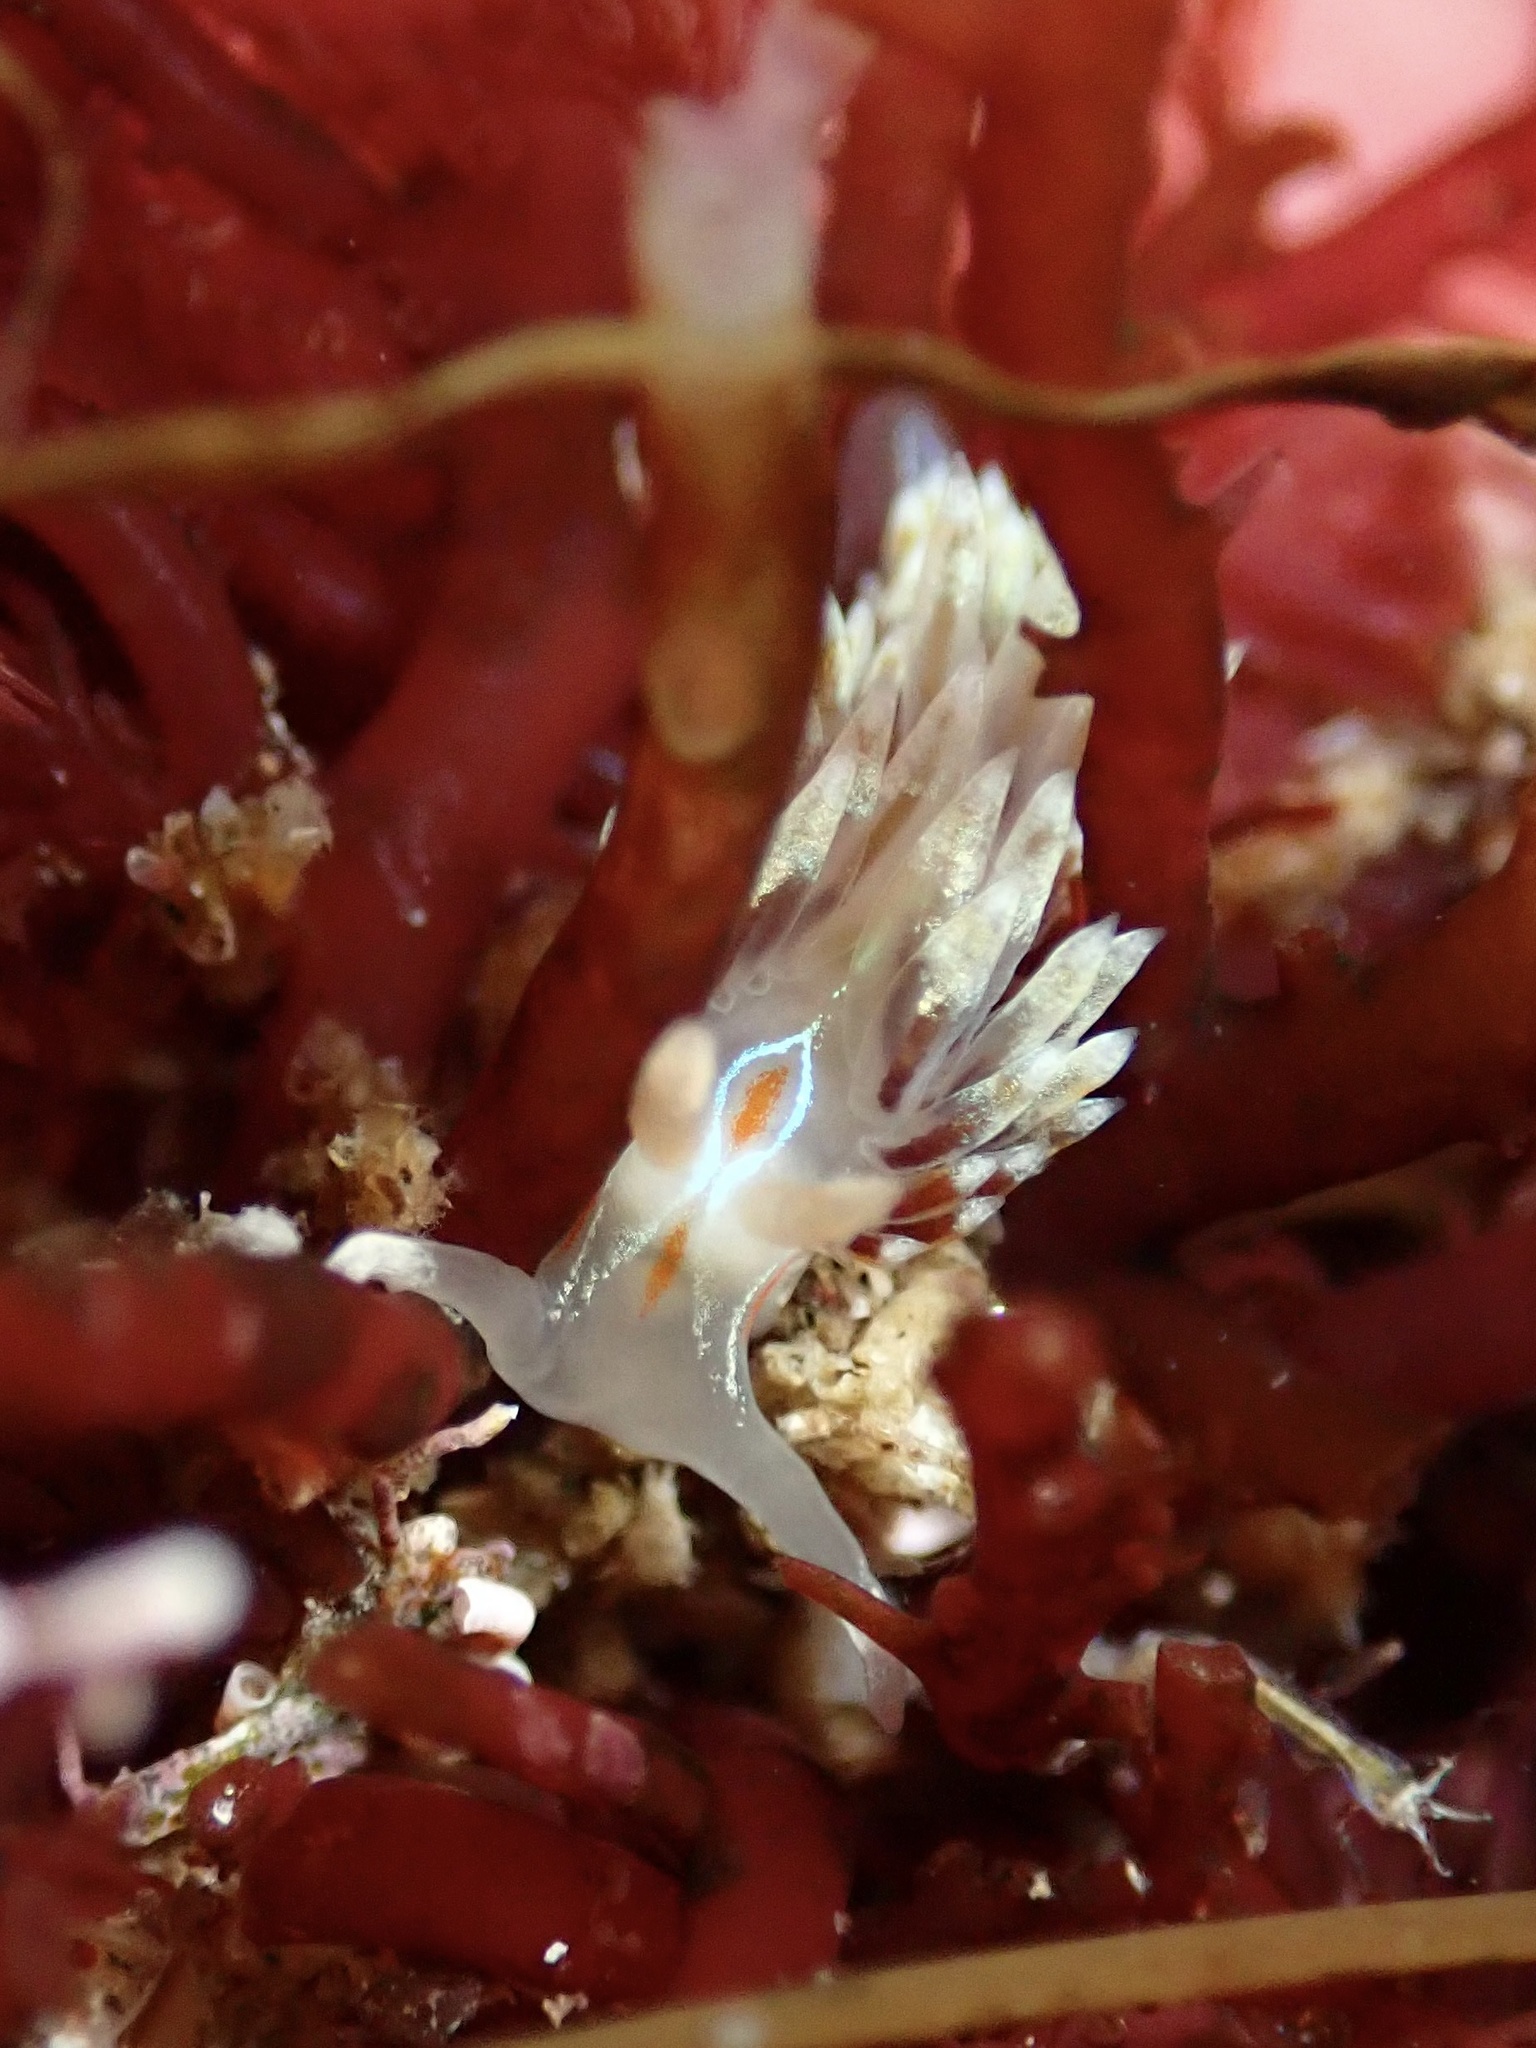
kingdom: Animalia
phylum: Mollusca
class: Gastropoda
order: Nudibranchia
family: Myrrhinidae
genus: Hermissenda
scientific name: Hermissenda opalescens
